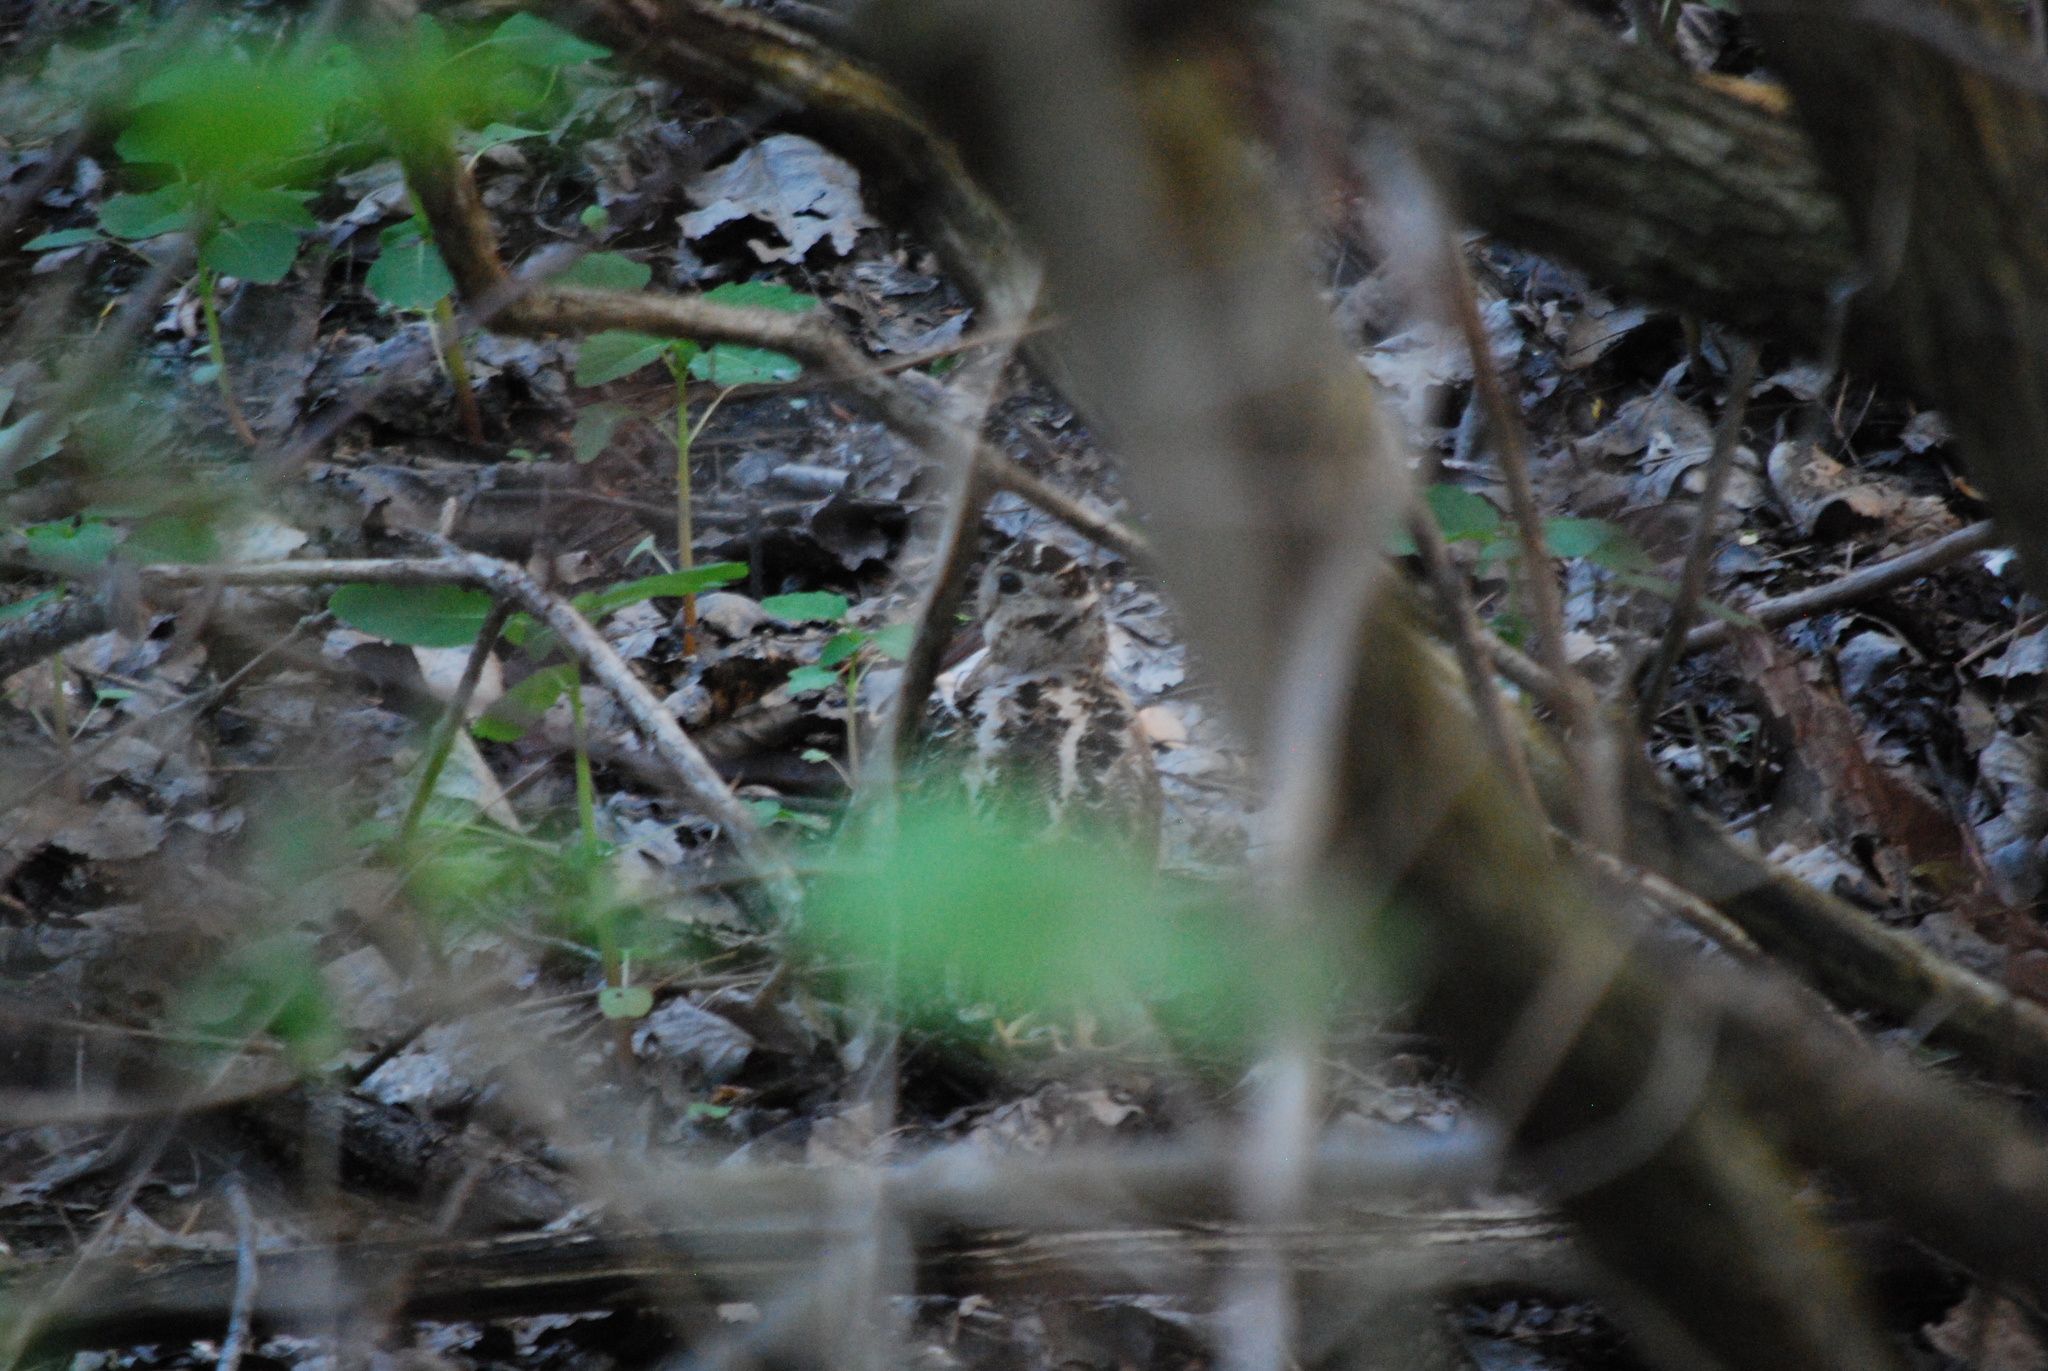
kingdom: Animalia
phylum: Chordata
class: Aves
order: Charadriiformes
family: Scolopacidae
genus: Scolopax
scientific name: Scolopax minor
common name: American woodcock
